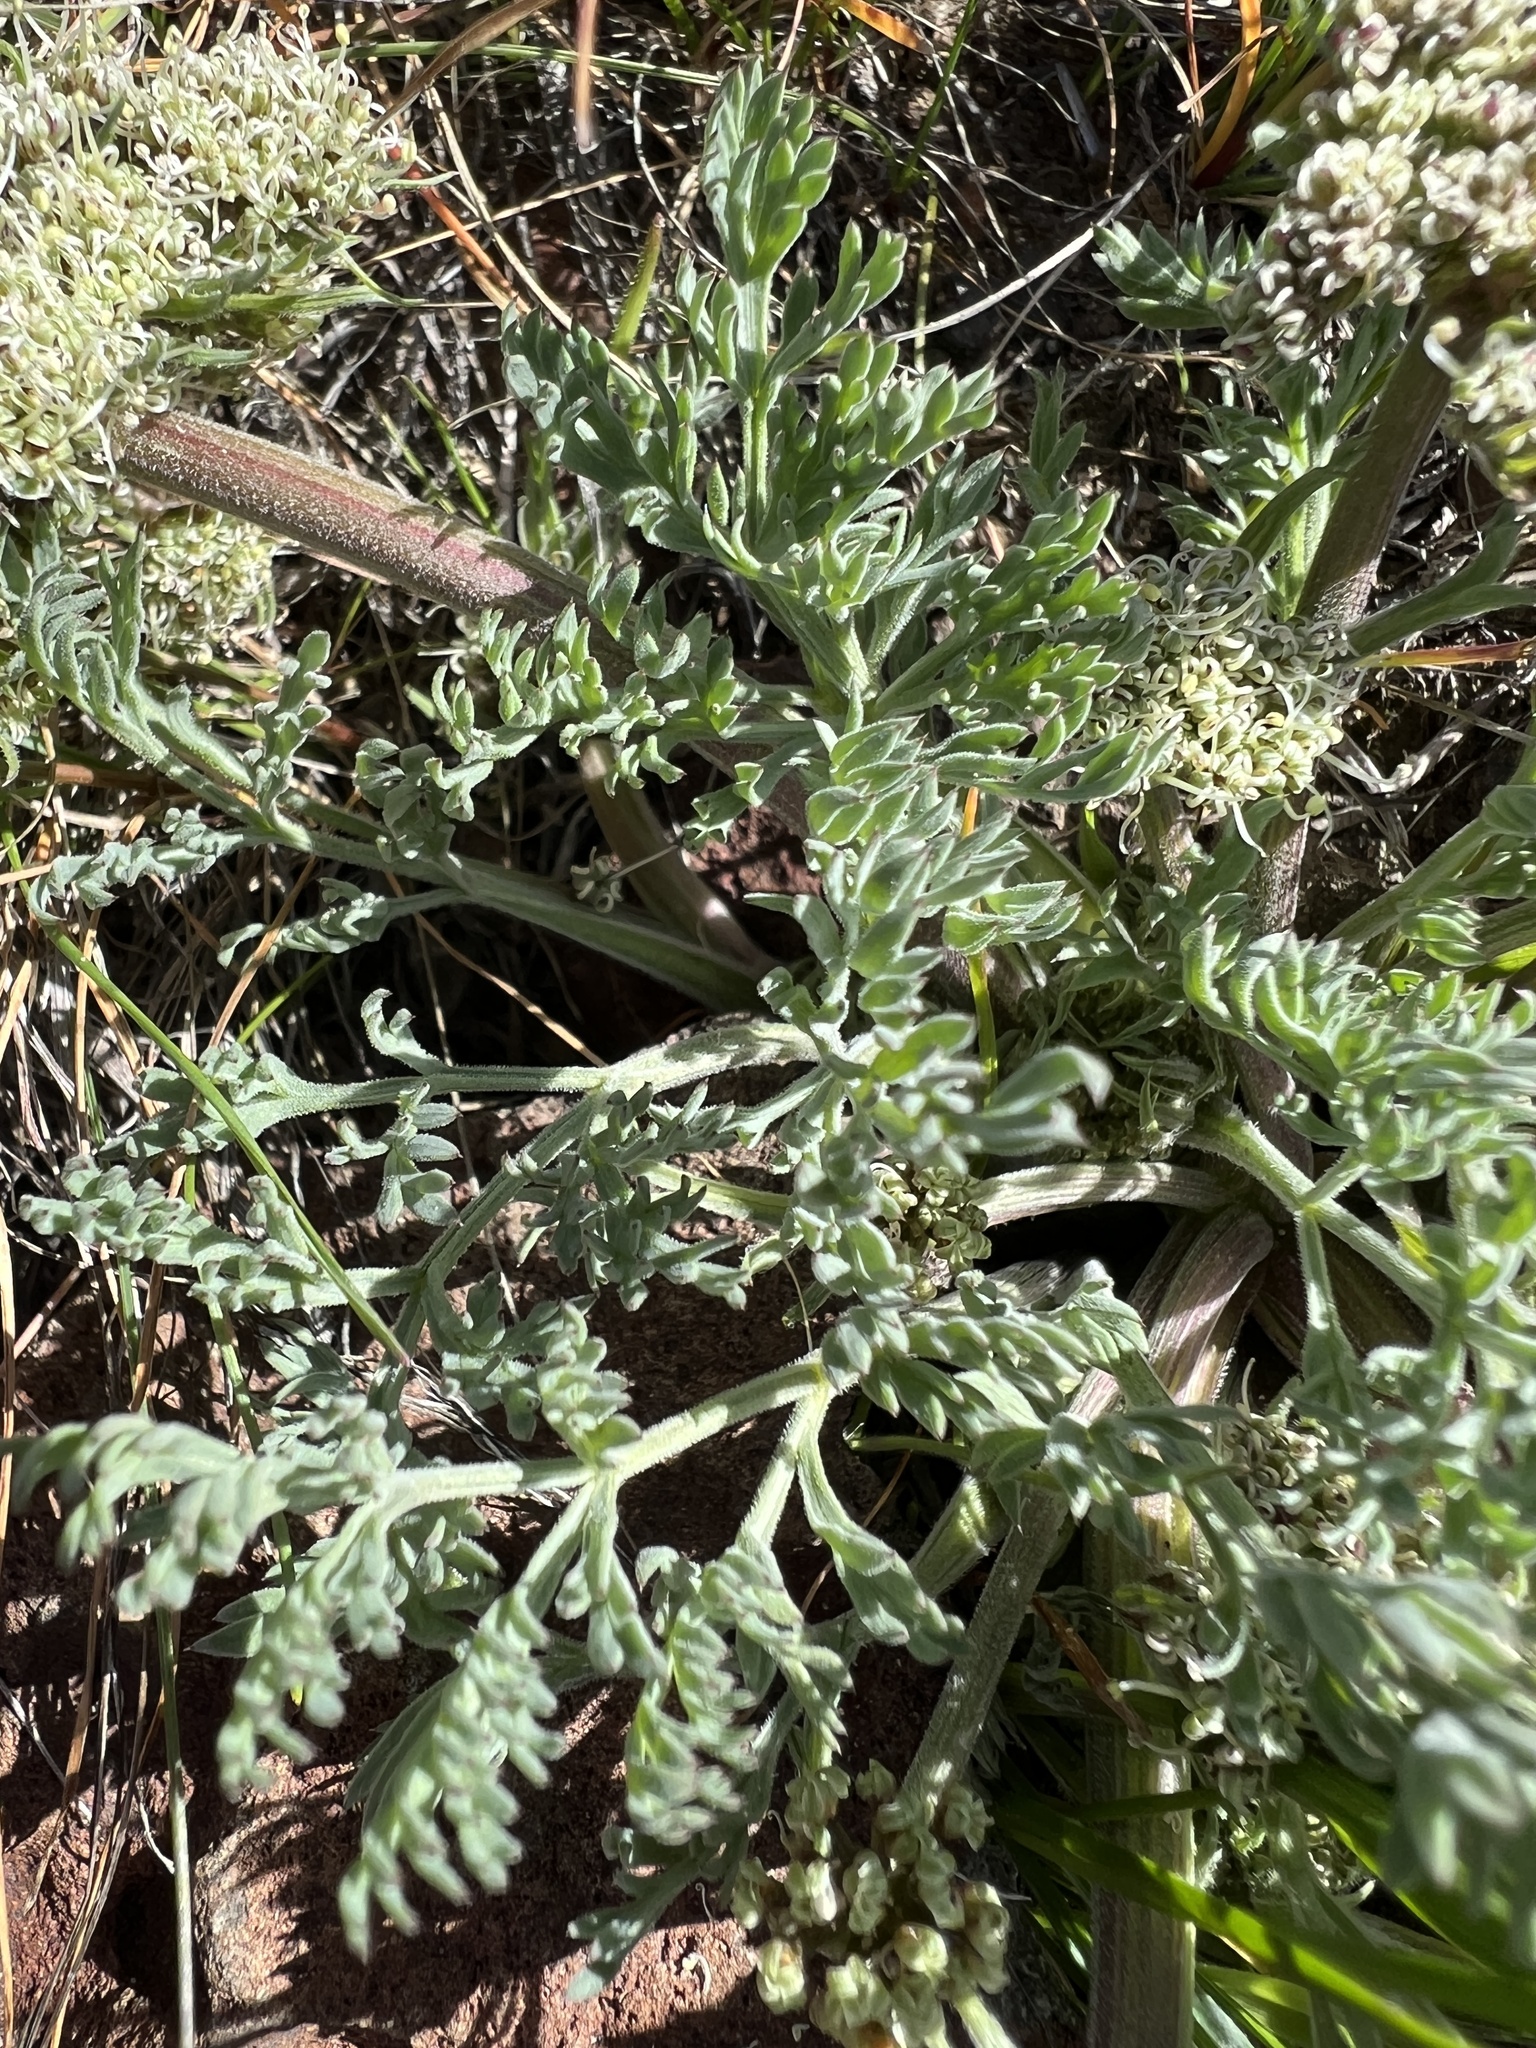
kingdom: Plantae
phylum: Tracheophyta
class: Magnoliopsida
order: Apiales
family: Apiaceae
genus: Lomatium
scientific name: Lomatium macrocarpum
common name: Big-seed biscuitroot
